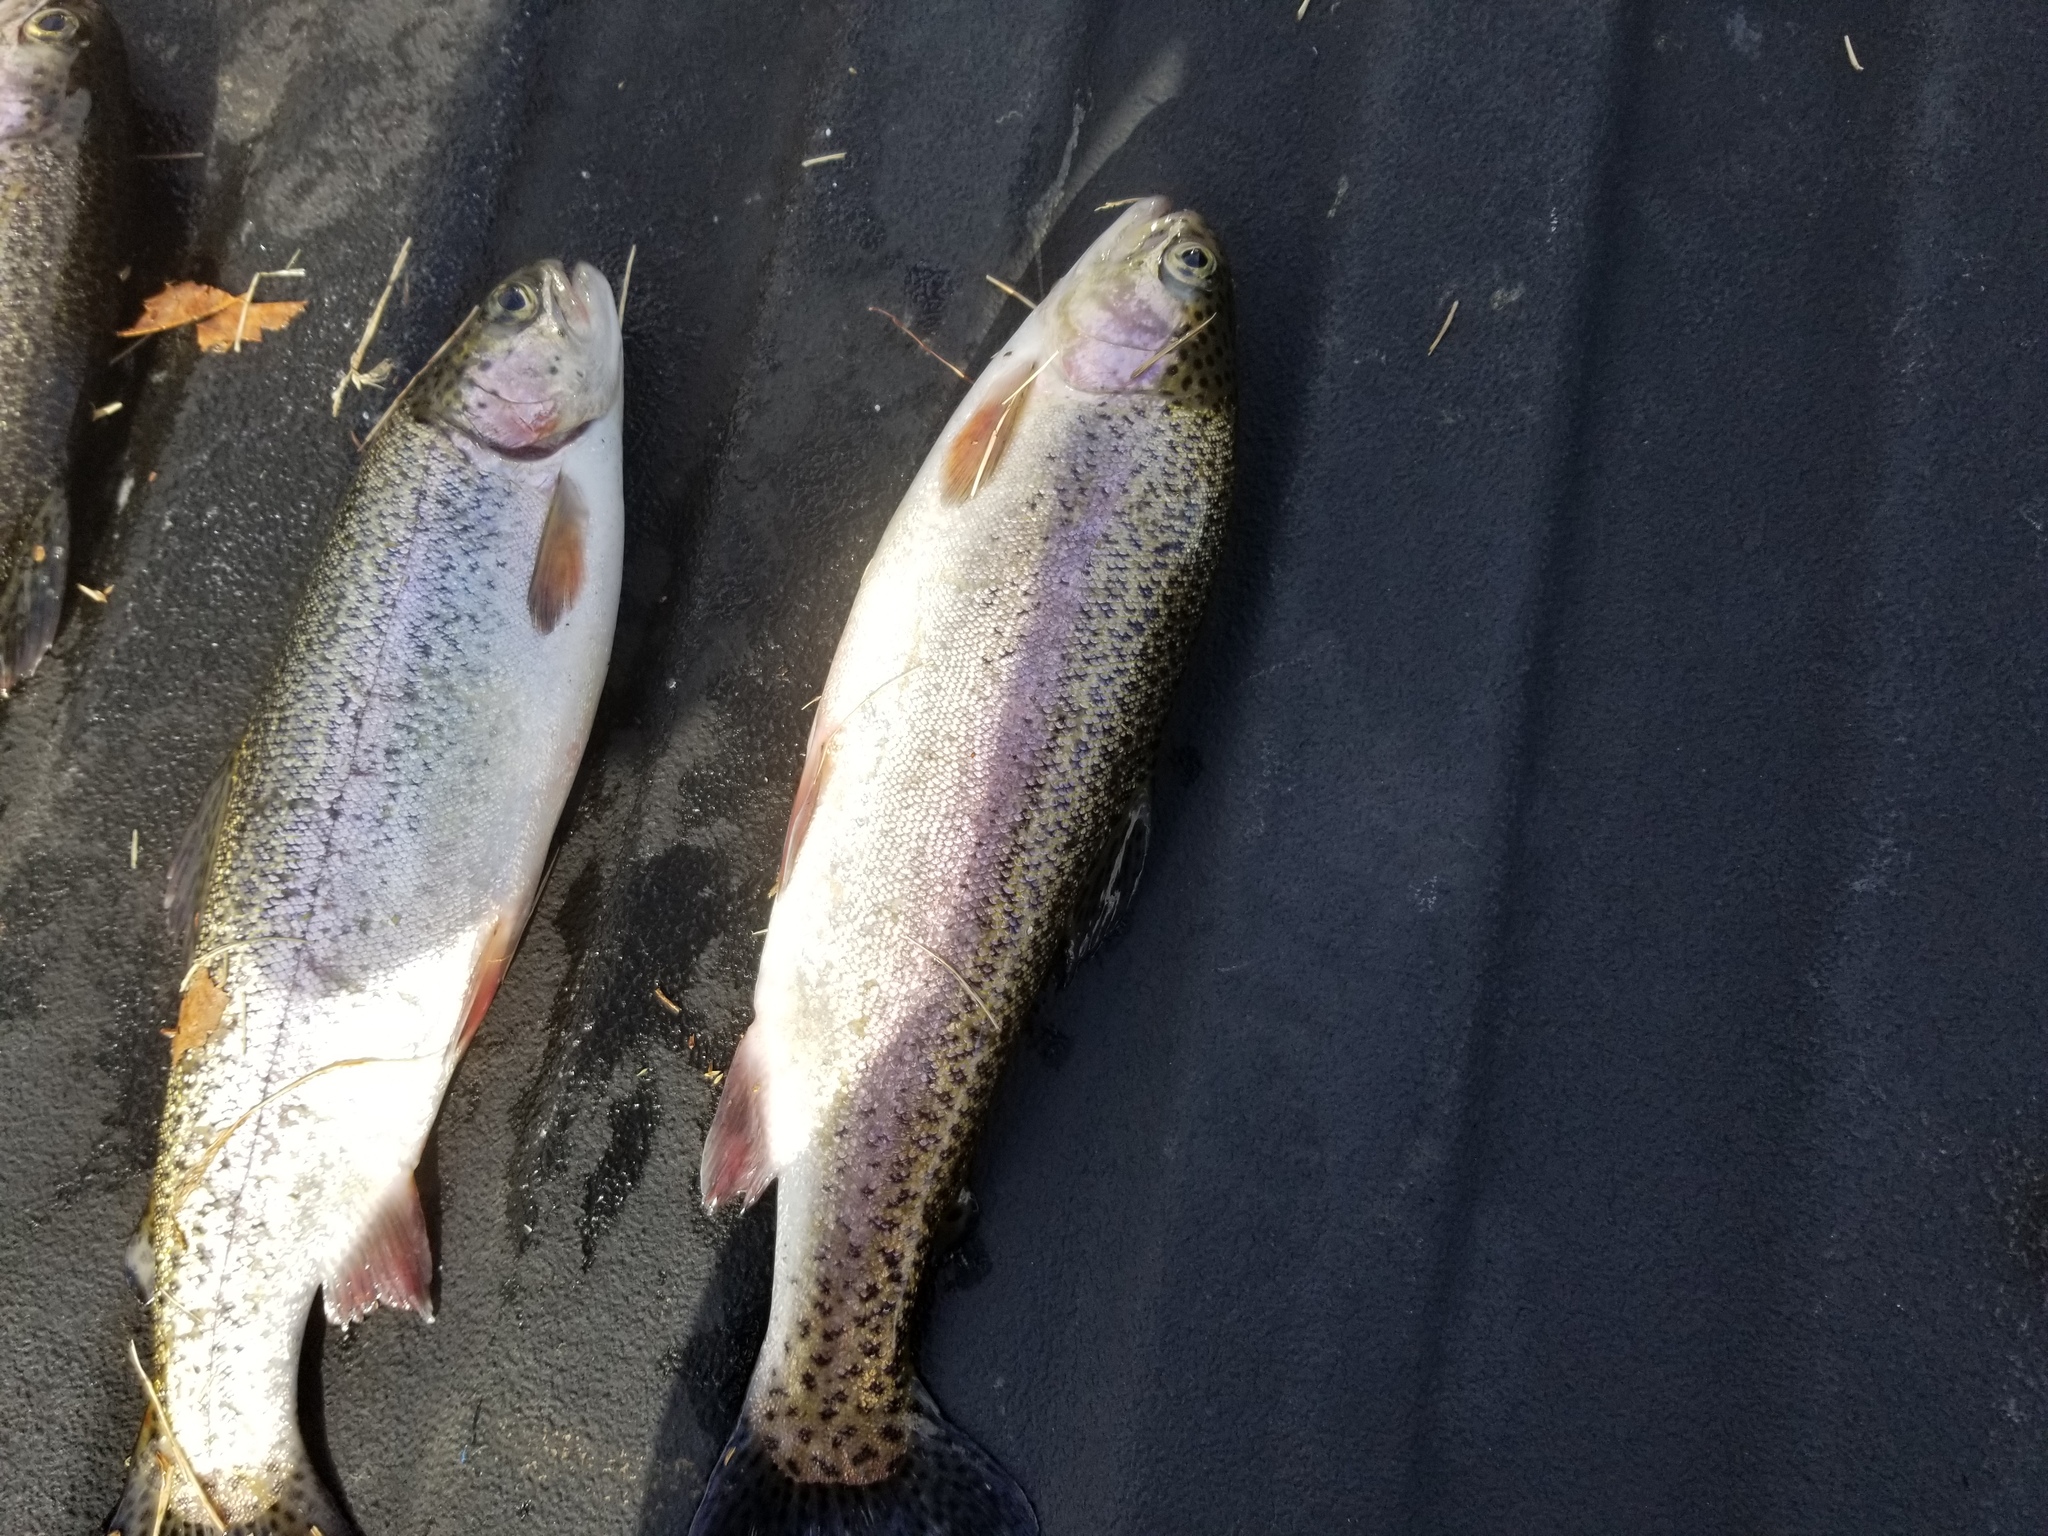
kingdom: Animalia
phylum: Chordata
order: Salmoniformes
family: Salmonidae
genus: Oncorhynchus
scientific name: Oncorhynchus mykiss
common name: Rainbow trout
